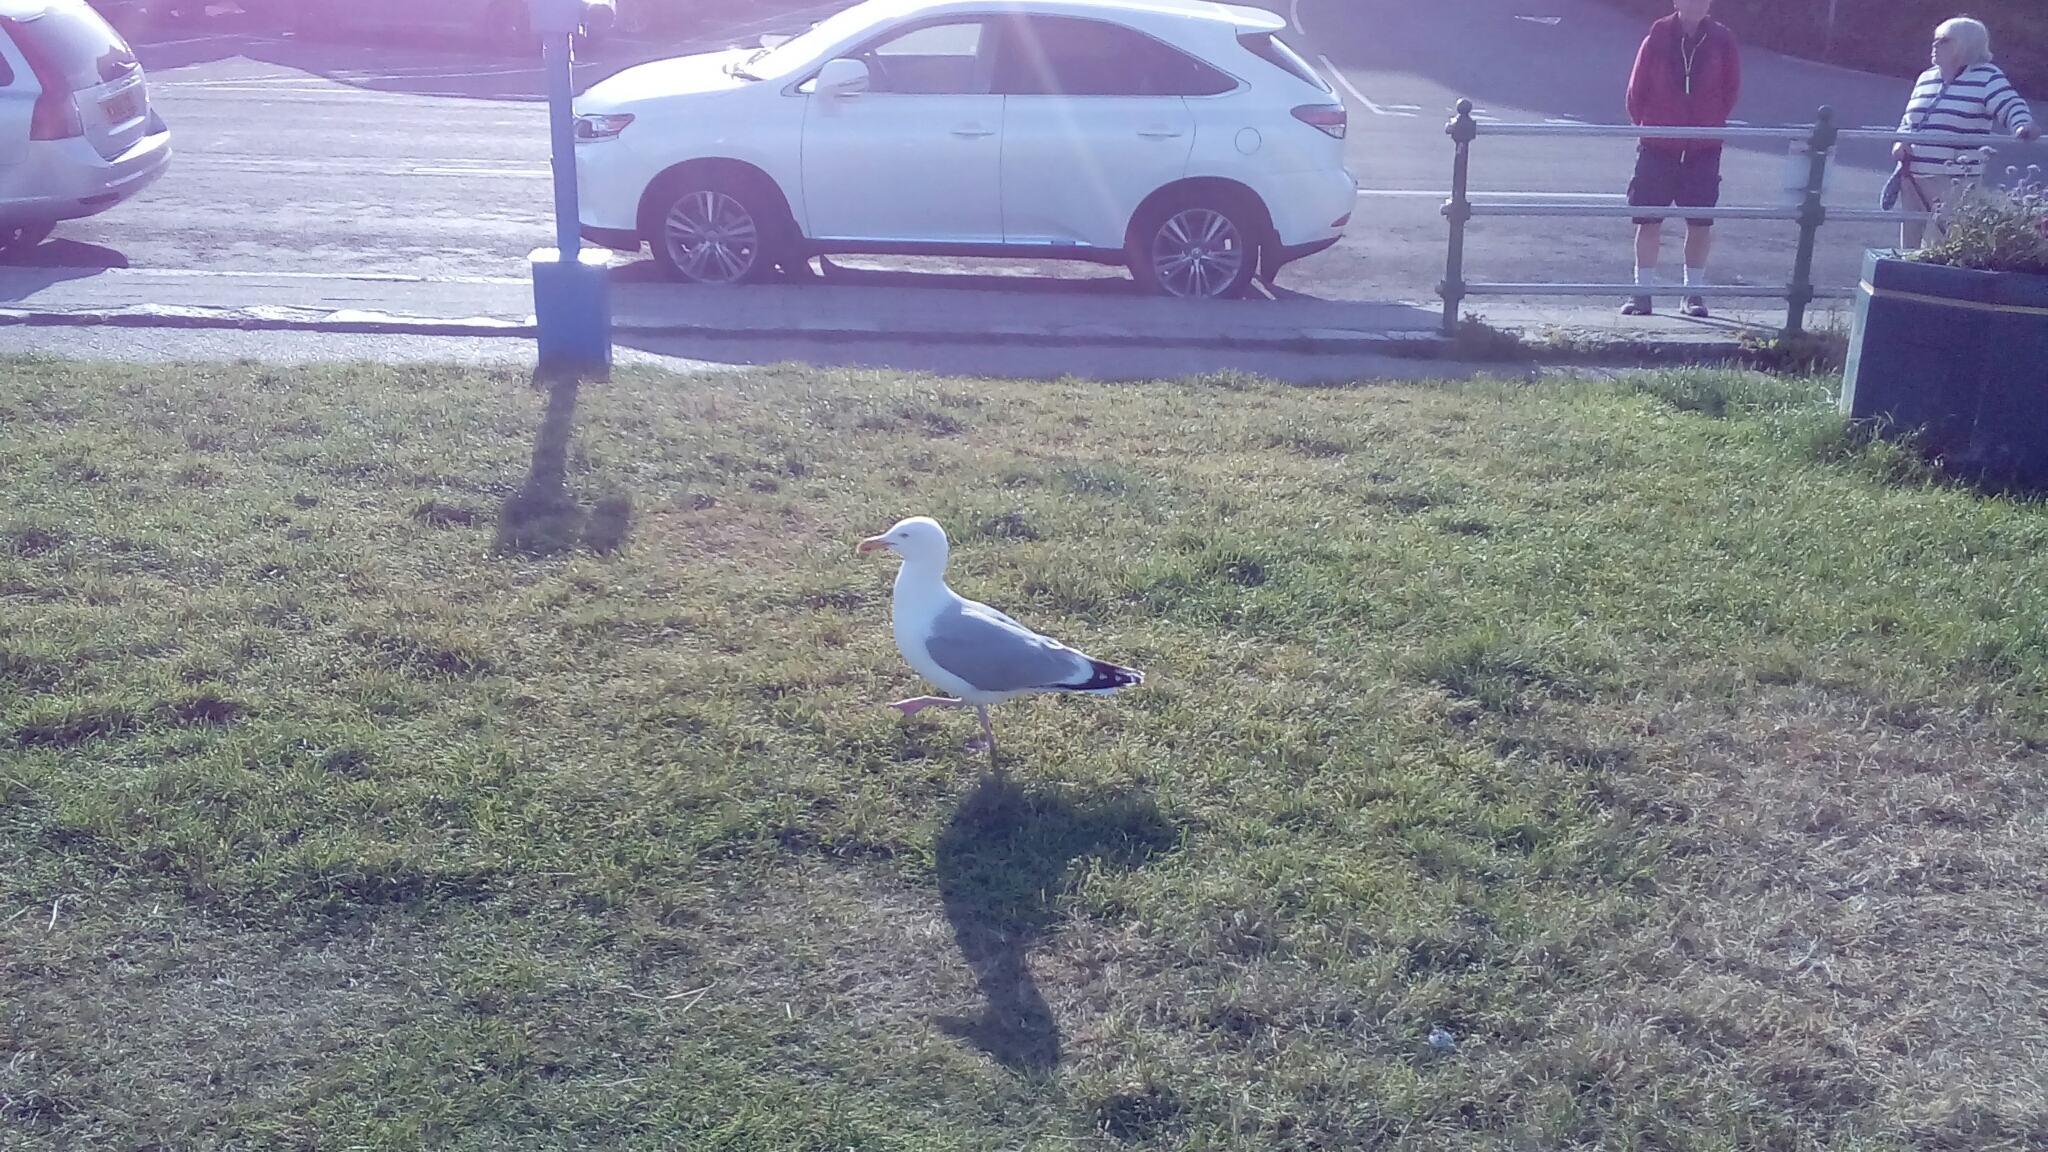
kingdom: Animalia
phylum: Chordata
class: Aves
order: Charadriiformes
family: Laridae
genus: Larus
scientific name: Larus argentatus
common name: Herring gull
